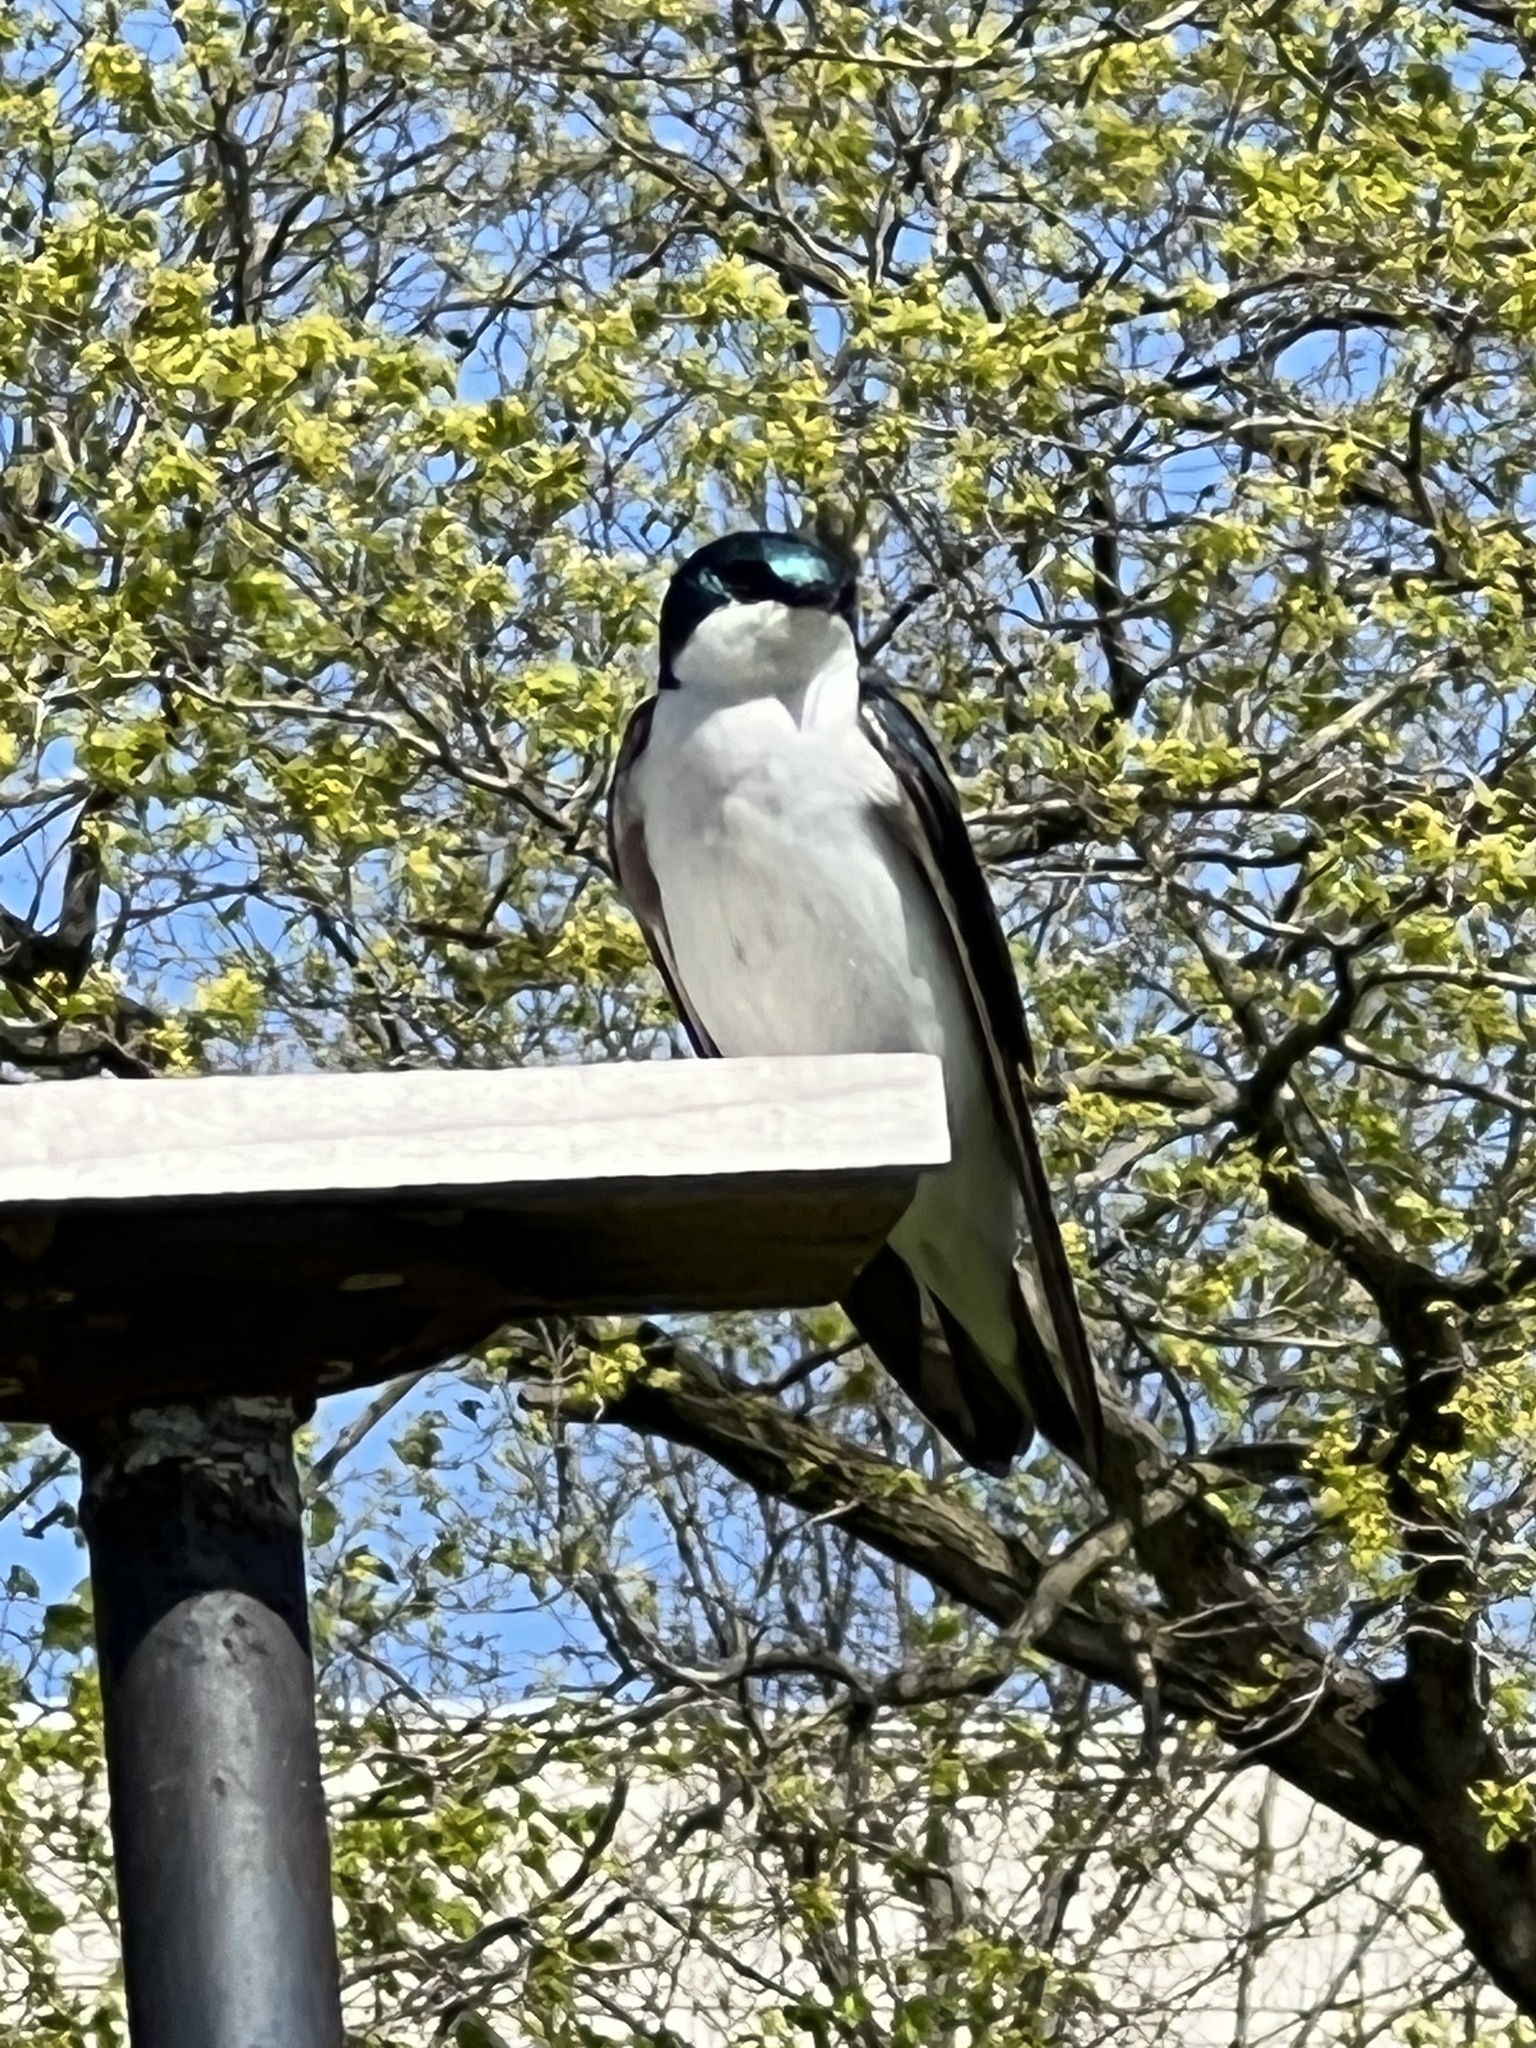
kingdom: Animalia
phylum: Chordata
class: Aves
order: Passeriformes
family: Hirundinidae
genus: Tachycineta
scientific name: Tachycineta bicolor
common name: Tree swallow
